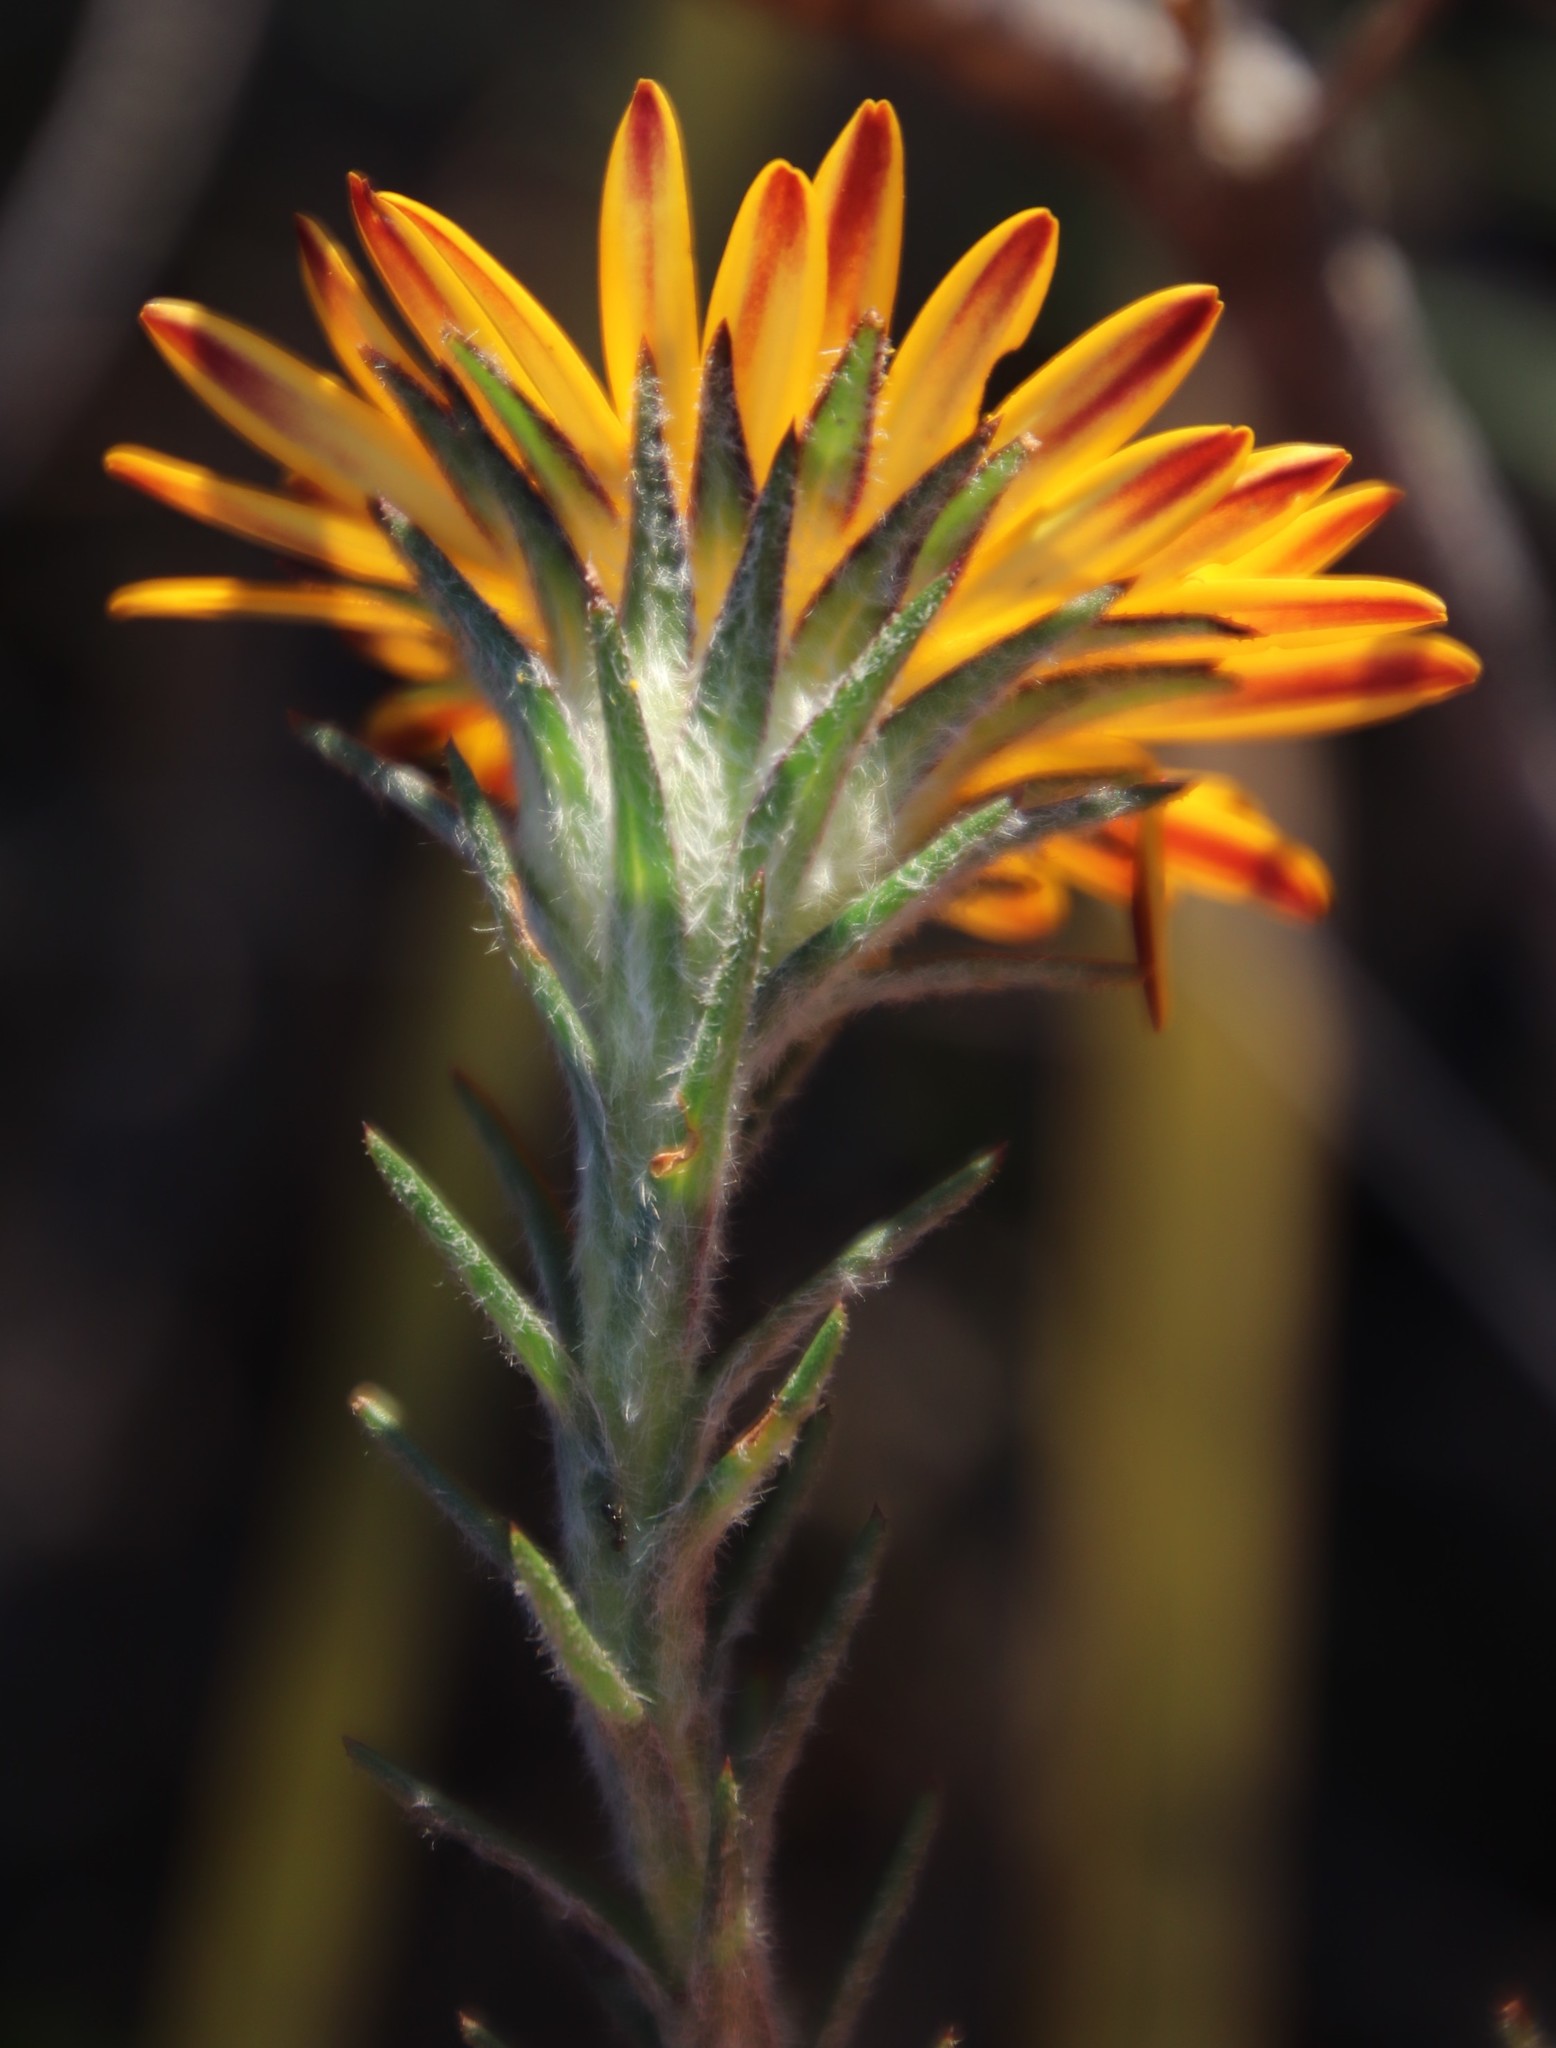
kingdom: Plantae
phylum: Tracheophyta
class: Magnoliopsida
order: Asterales
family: Asteraceae
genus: Oedera
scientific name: Oedera capensis
